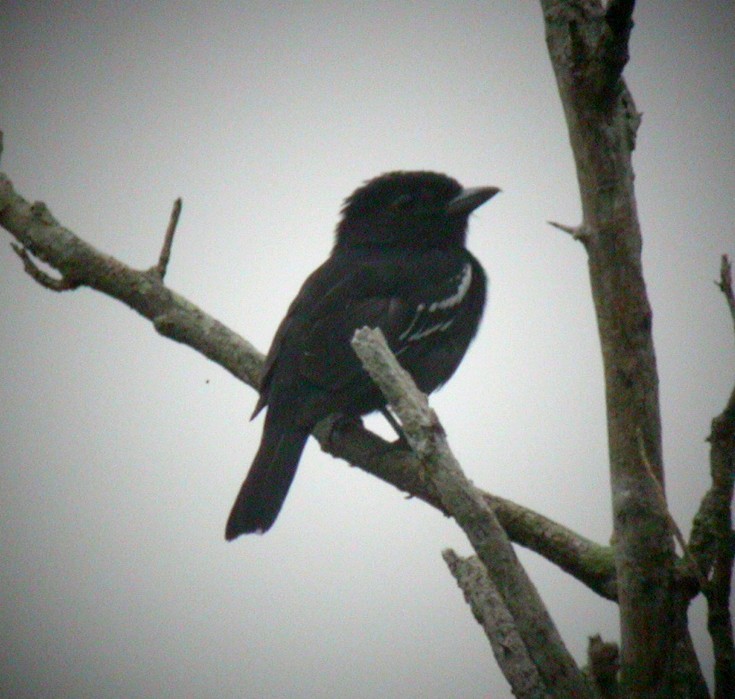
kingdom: Animalia
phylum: Chordata
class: Aves
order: Passeriformes
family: Cotingidae
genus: Pachyramphus
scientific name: Pachyramphus polychopterus
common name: White-winged becard
